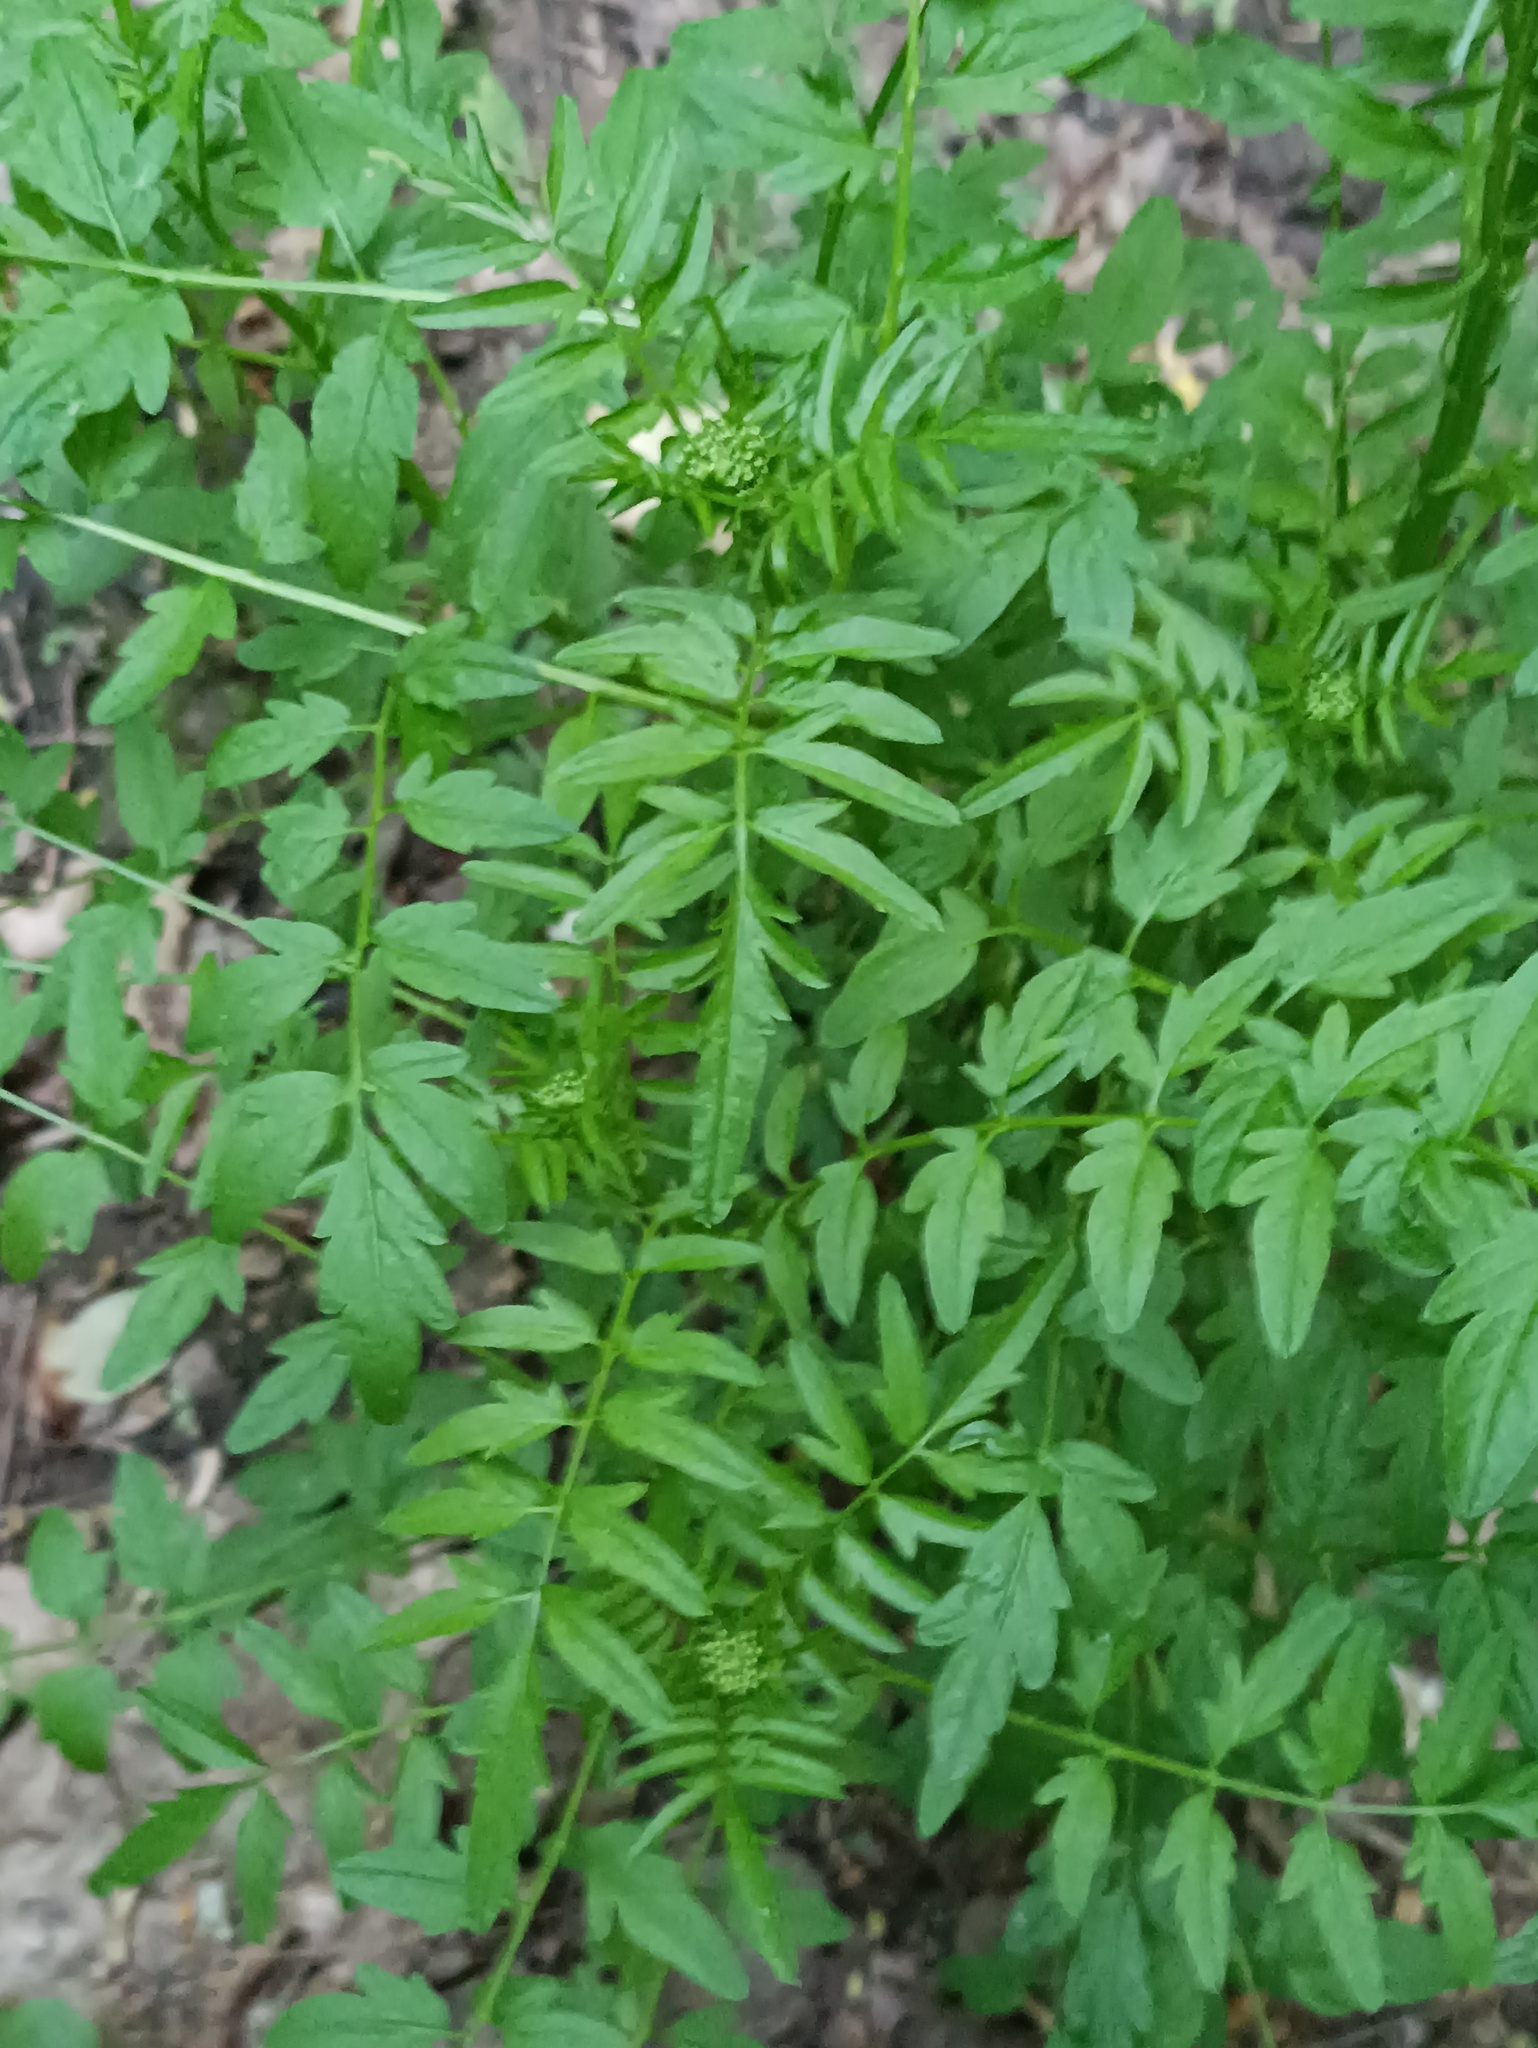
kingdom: Plantae
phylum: Tracheophyta
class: Magnoliopsida
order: Brassicales
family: Brassicaceae
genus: Cardamine
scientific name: Cardamine impatiens
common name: Narrow-leaved bitter-cress
